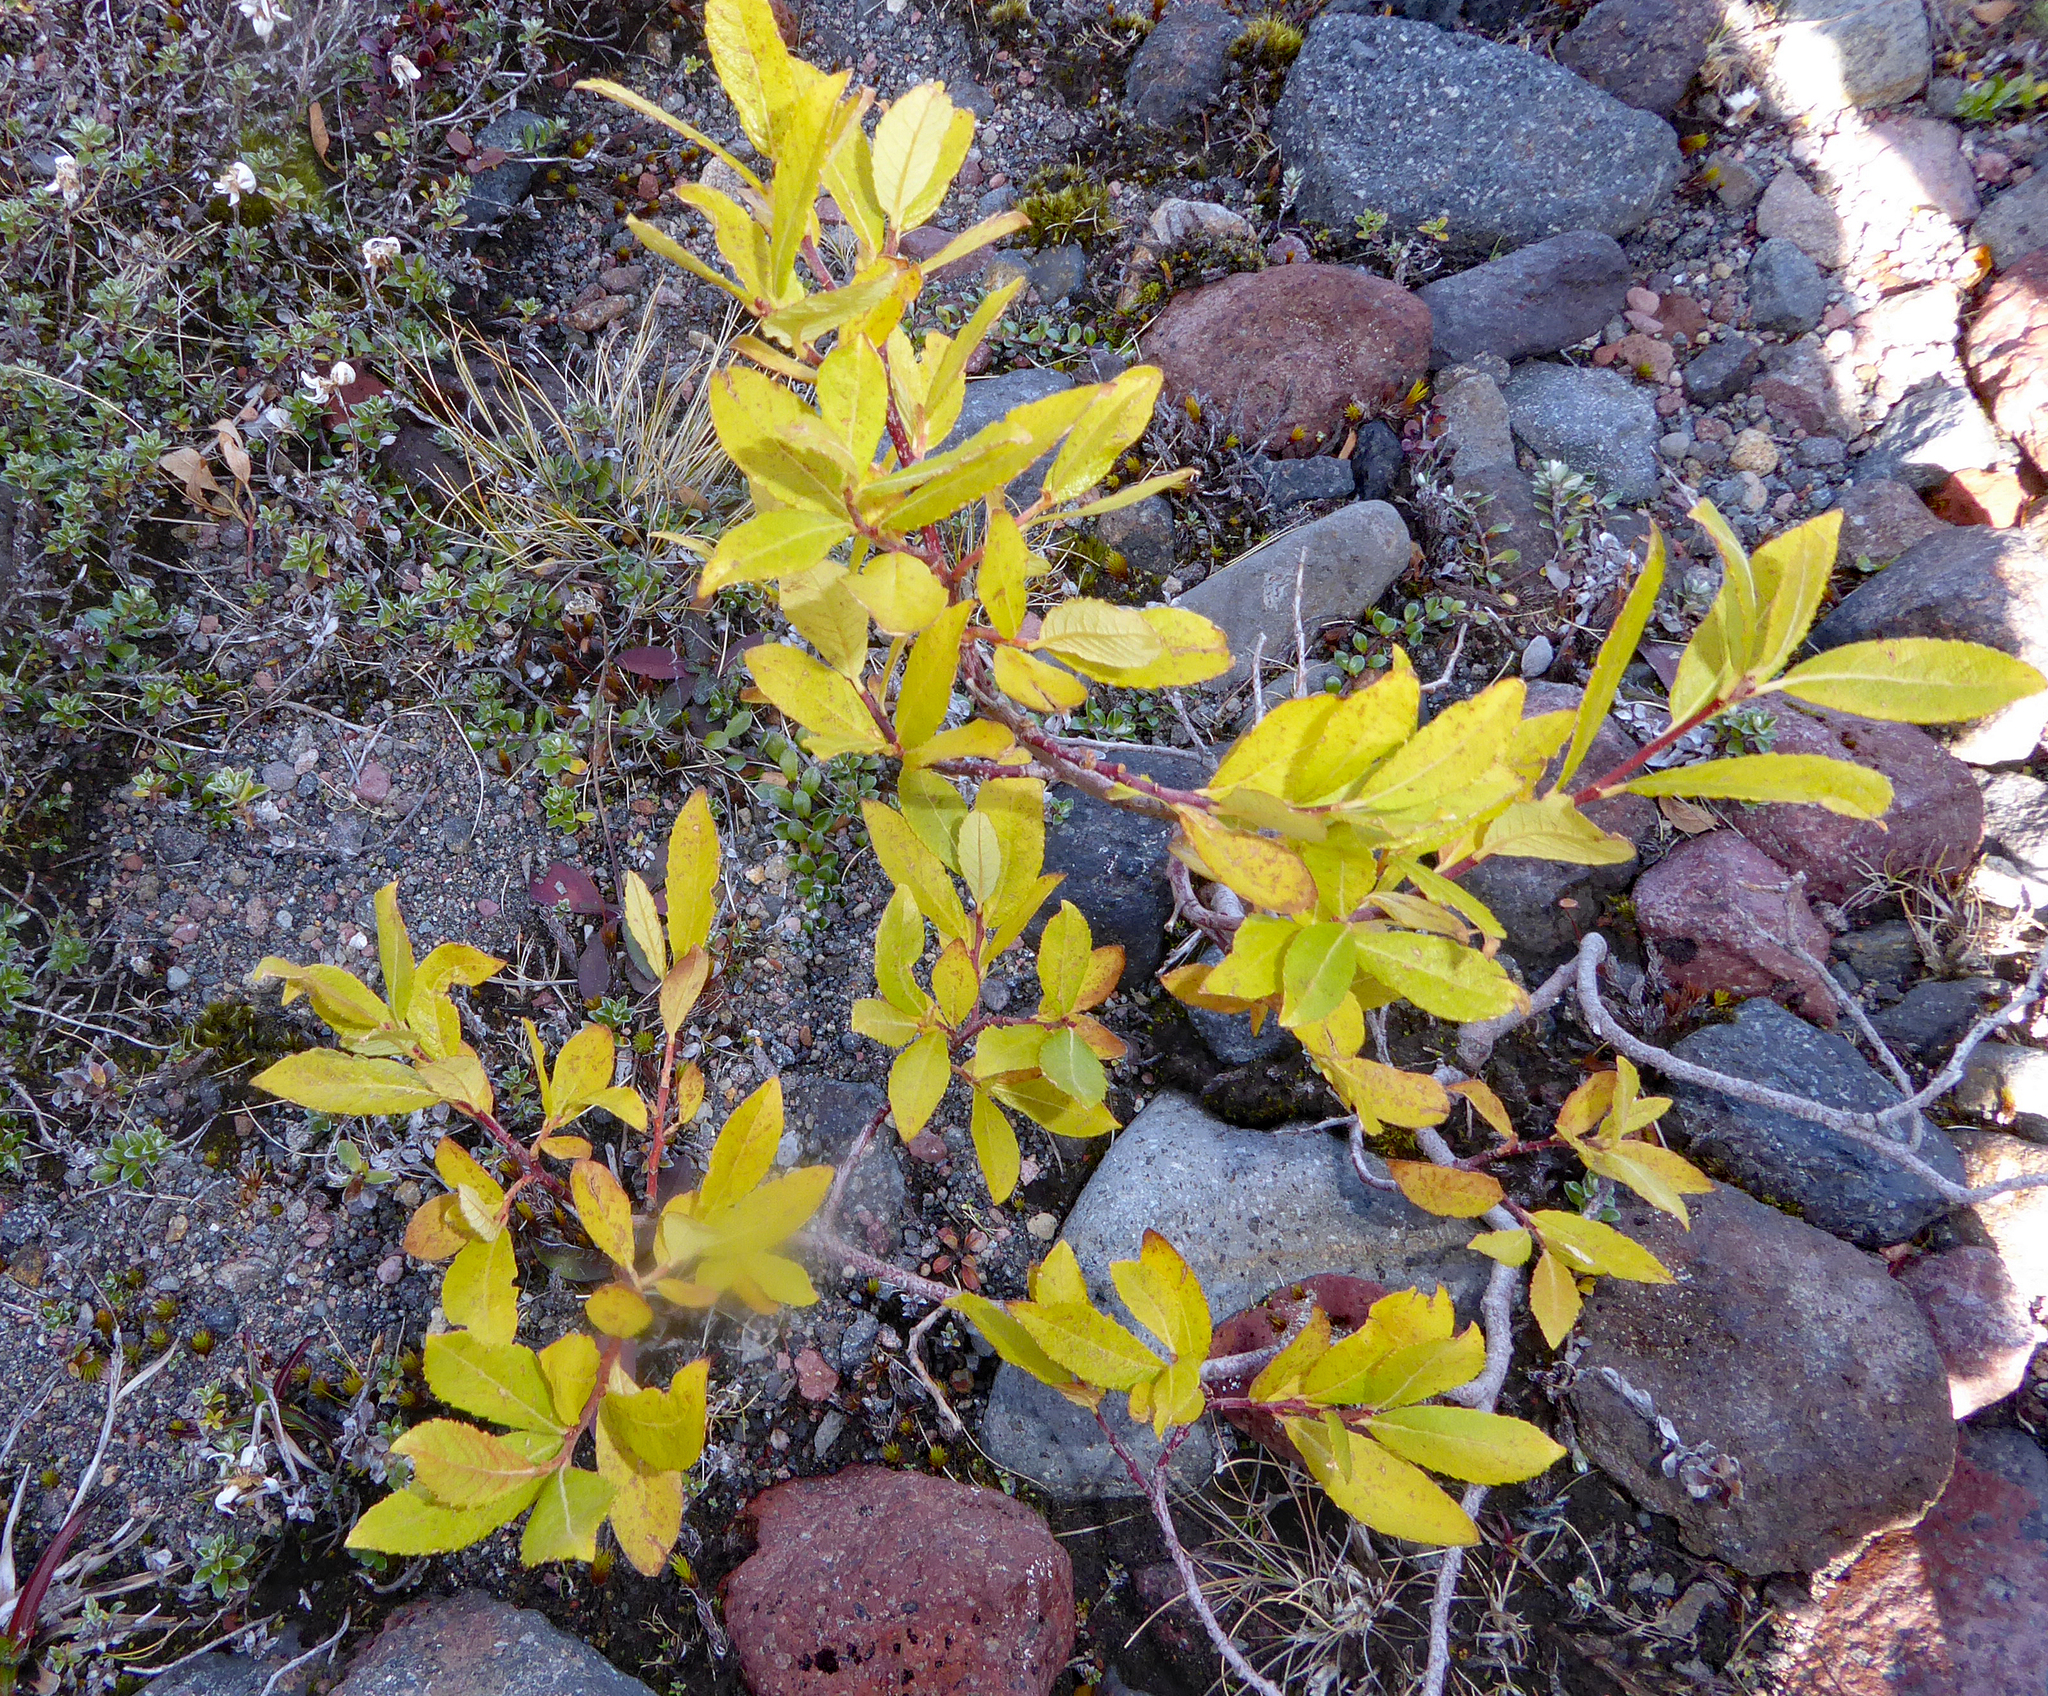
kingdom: Plantae
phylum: Tracheophyta
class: Magnoliopsida
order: Malpighiales
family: Salicaceae
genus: Salix
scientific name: Salix cinerea
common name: Common sallow
